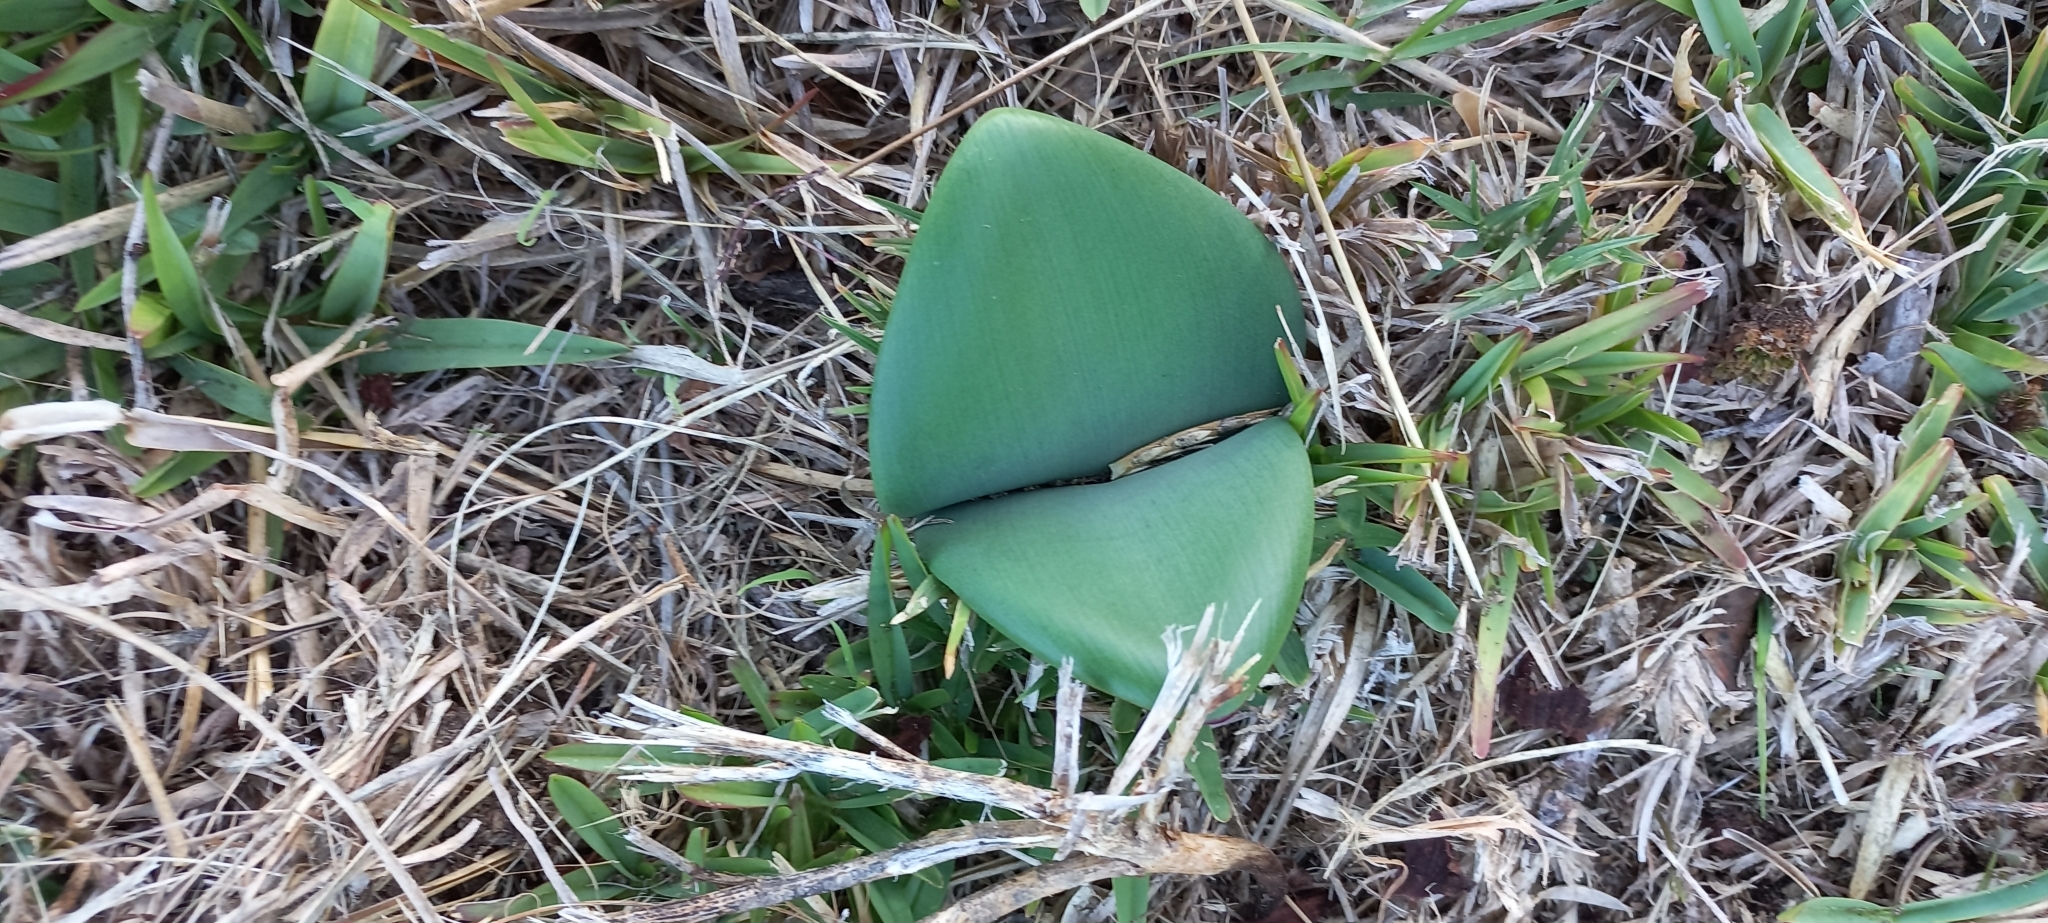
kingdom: Plantae
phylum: Tracheophyta
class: Liliopsida
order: Asparagales
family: Amaryllidaceae
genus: Haemanthus
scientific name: Haemanthus coccineus
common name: Cape-tulip
